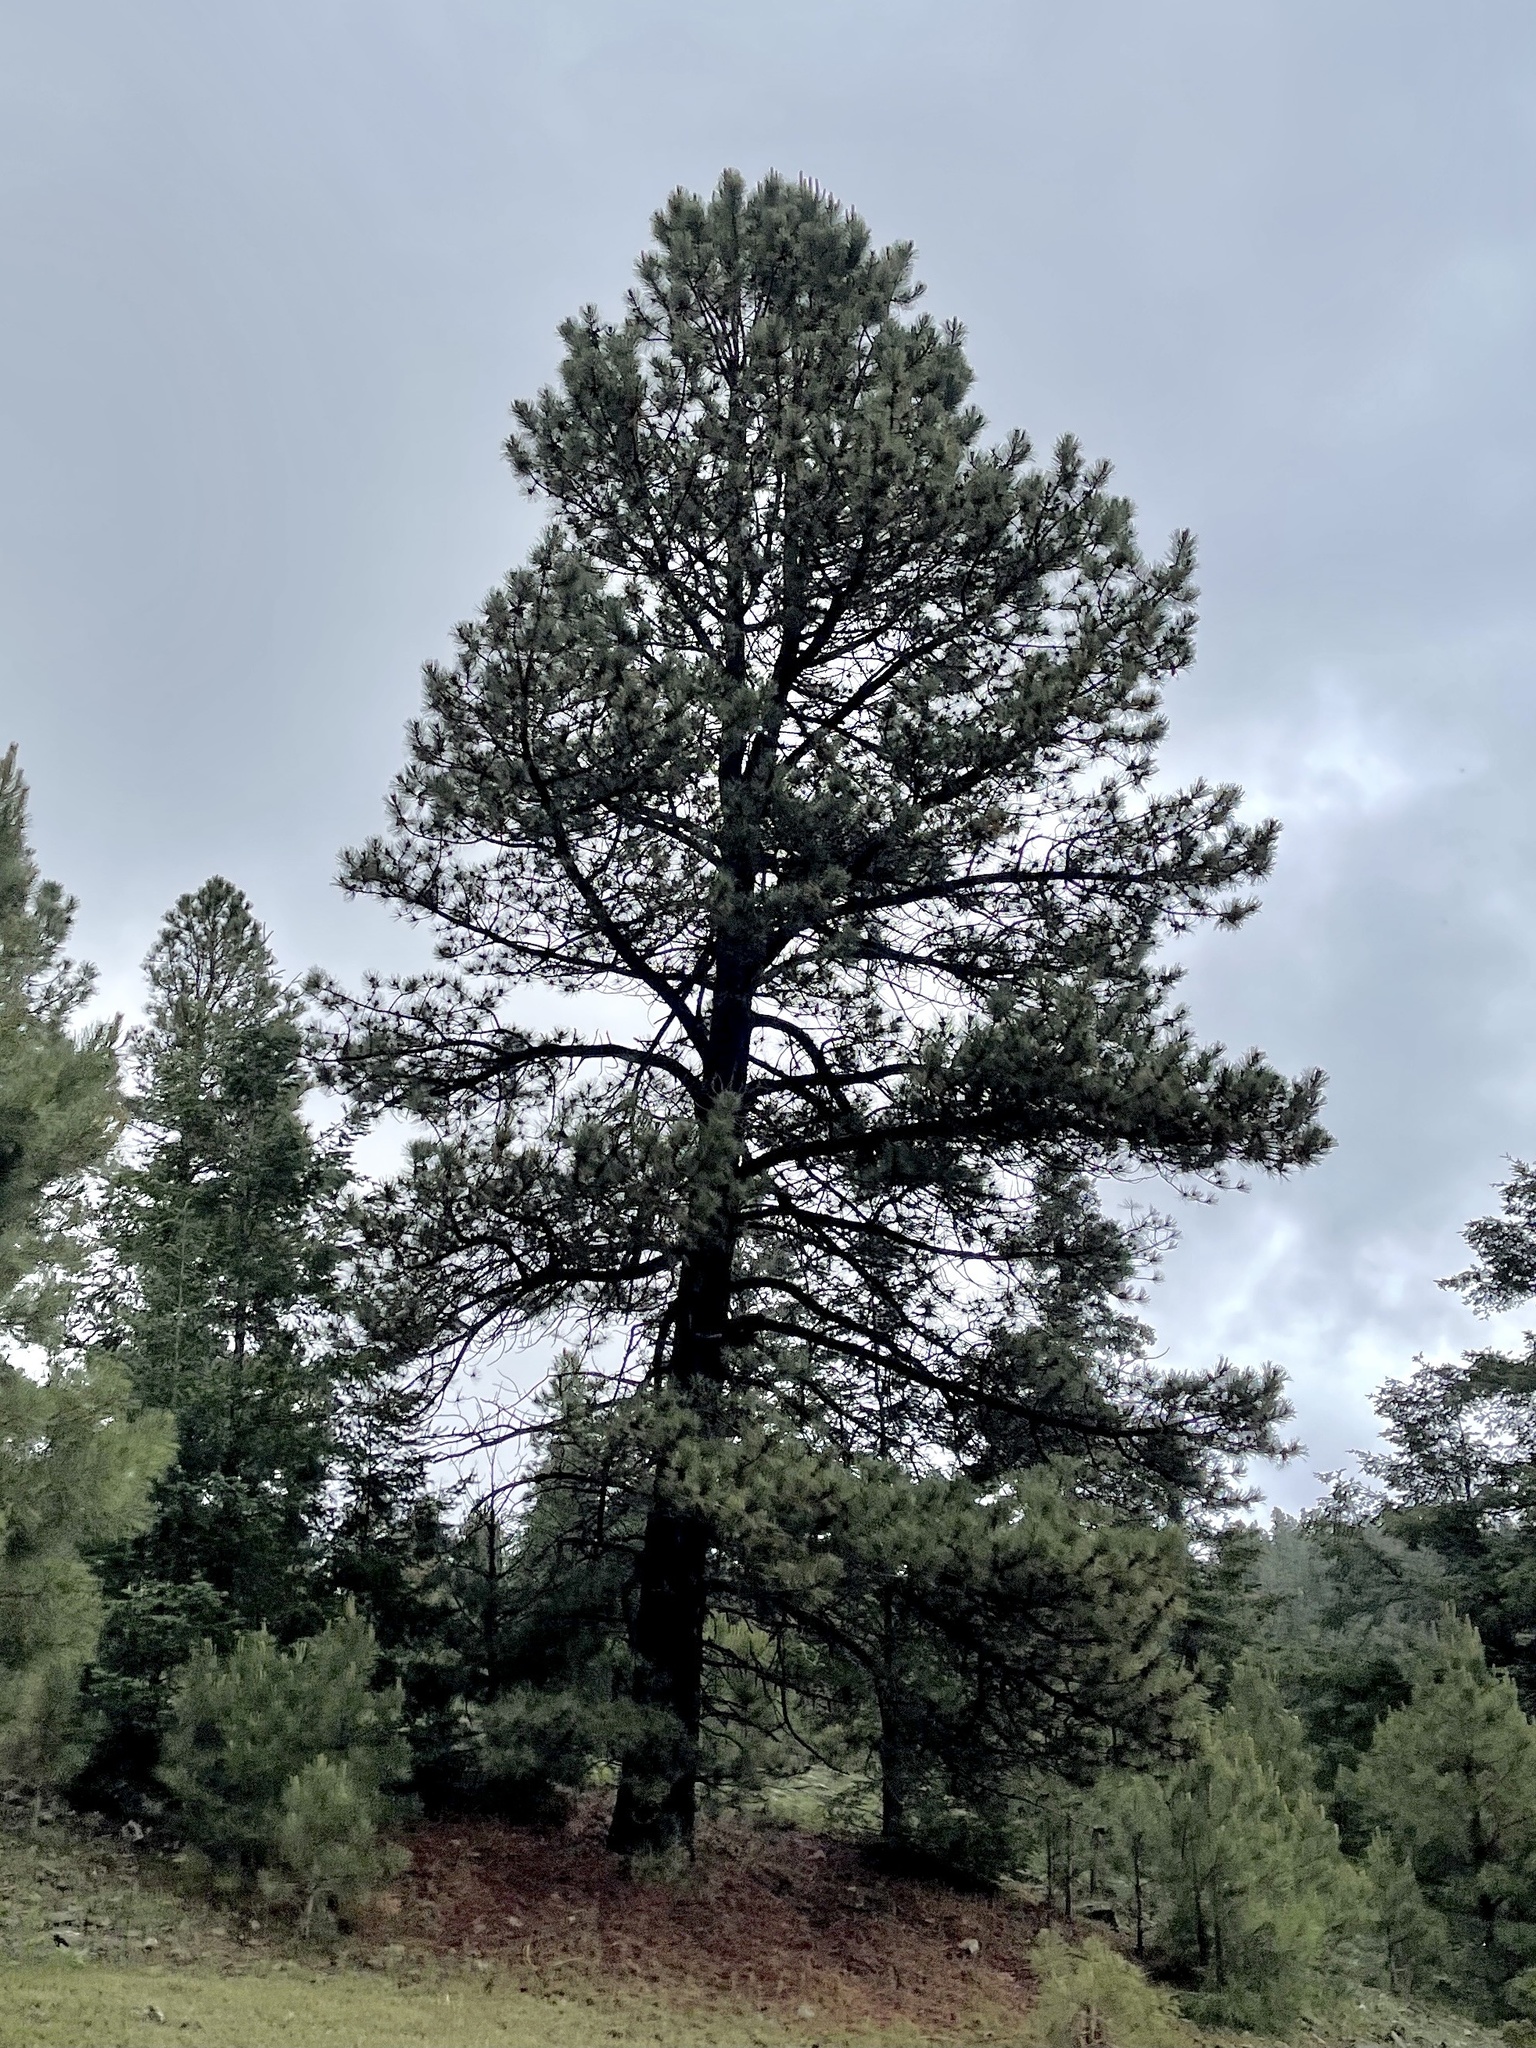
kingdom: Plantae
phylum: Tracheophyta
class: Pinopsida
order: Pinales
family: Pinaceae
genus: Pinus
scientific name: Pinus ponderosa
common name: Western yellow-pine
